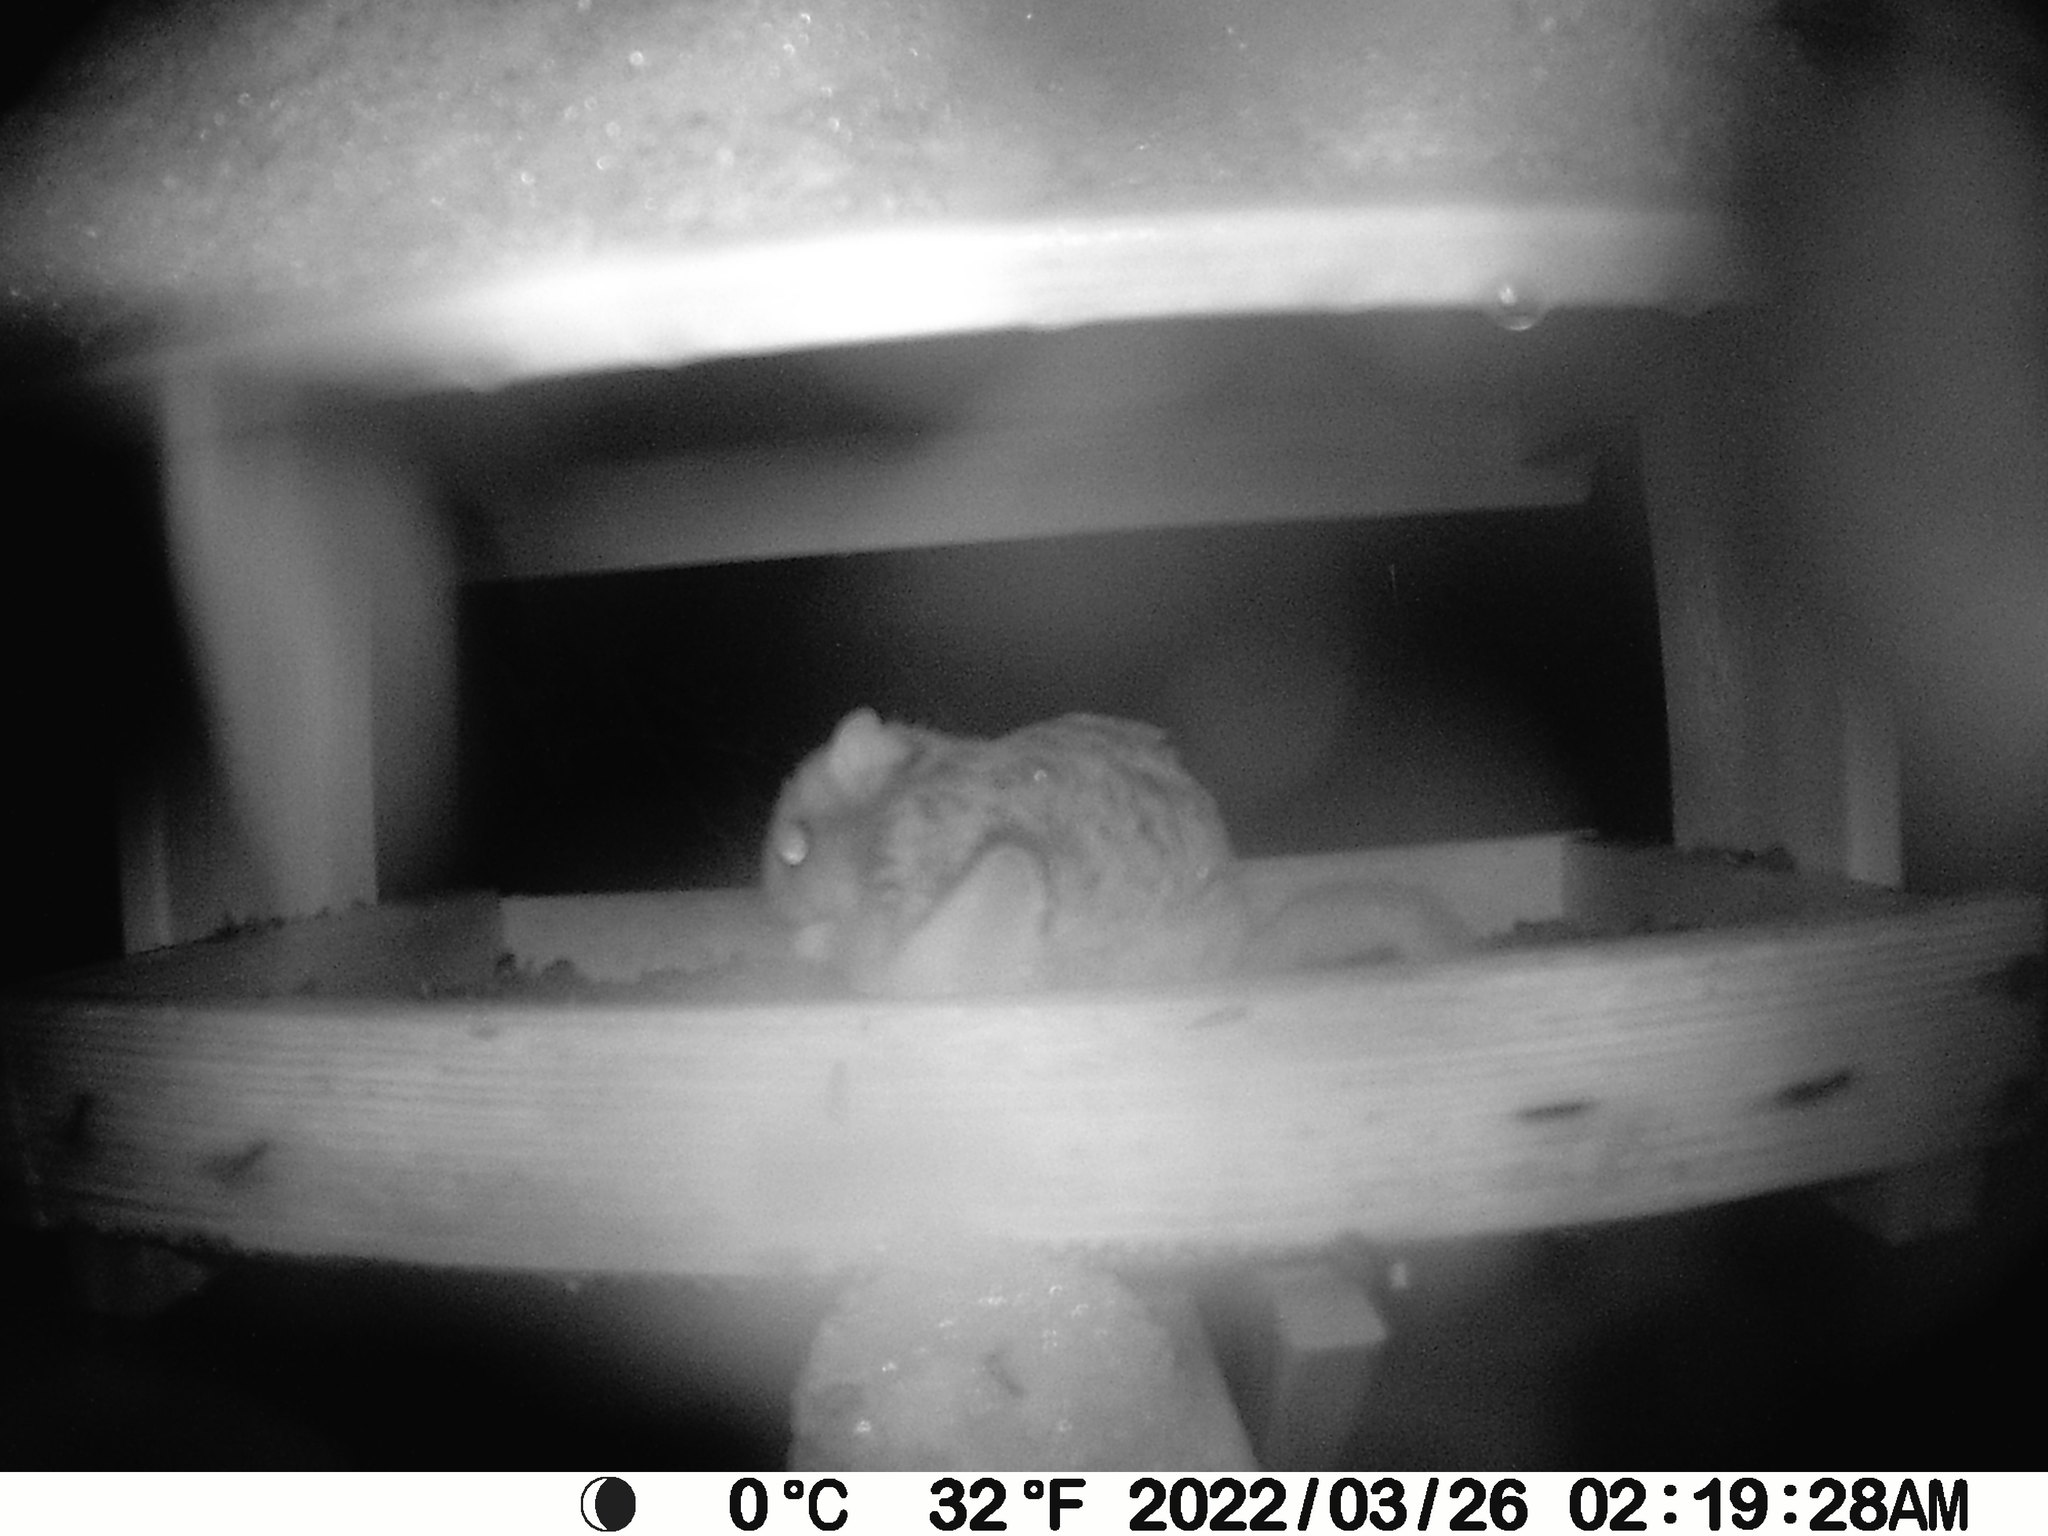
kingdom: Animalia
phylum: Chordata
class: Mammalia
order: Rodentia
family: Sciuridae
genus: Glaucomys
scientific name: Glaucomys sabrinus
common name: Northern flying squirrel
